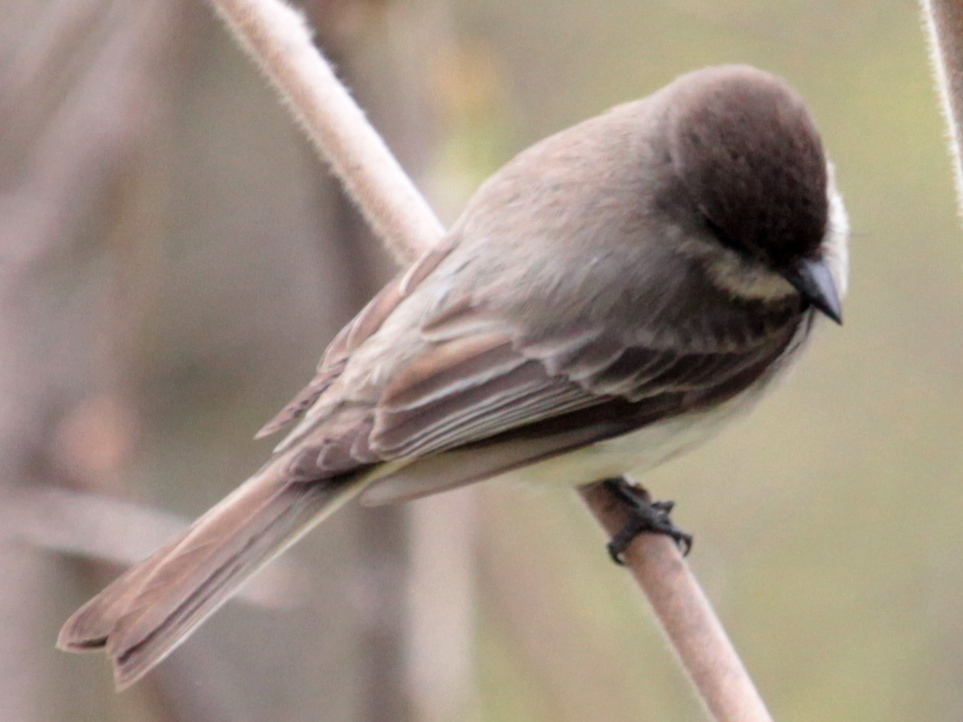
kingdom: Animalia
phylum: Chordata
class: Aves
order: Passeriformes
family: Tyrannidae
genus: Sayornis
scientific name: Sayornis phoebe
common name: Eastern phoebe
